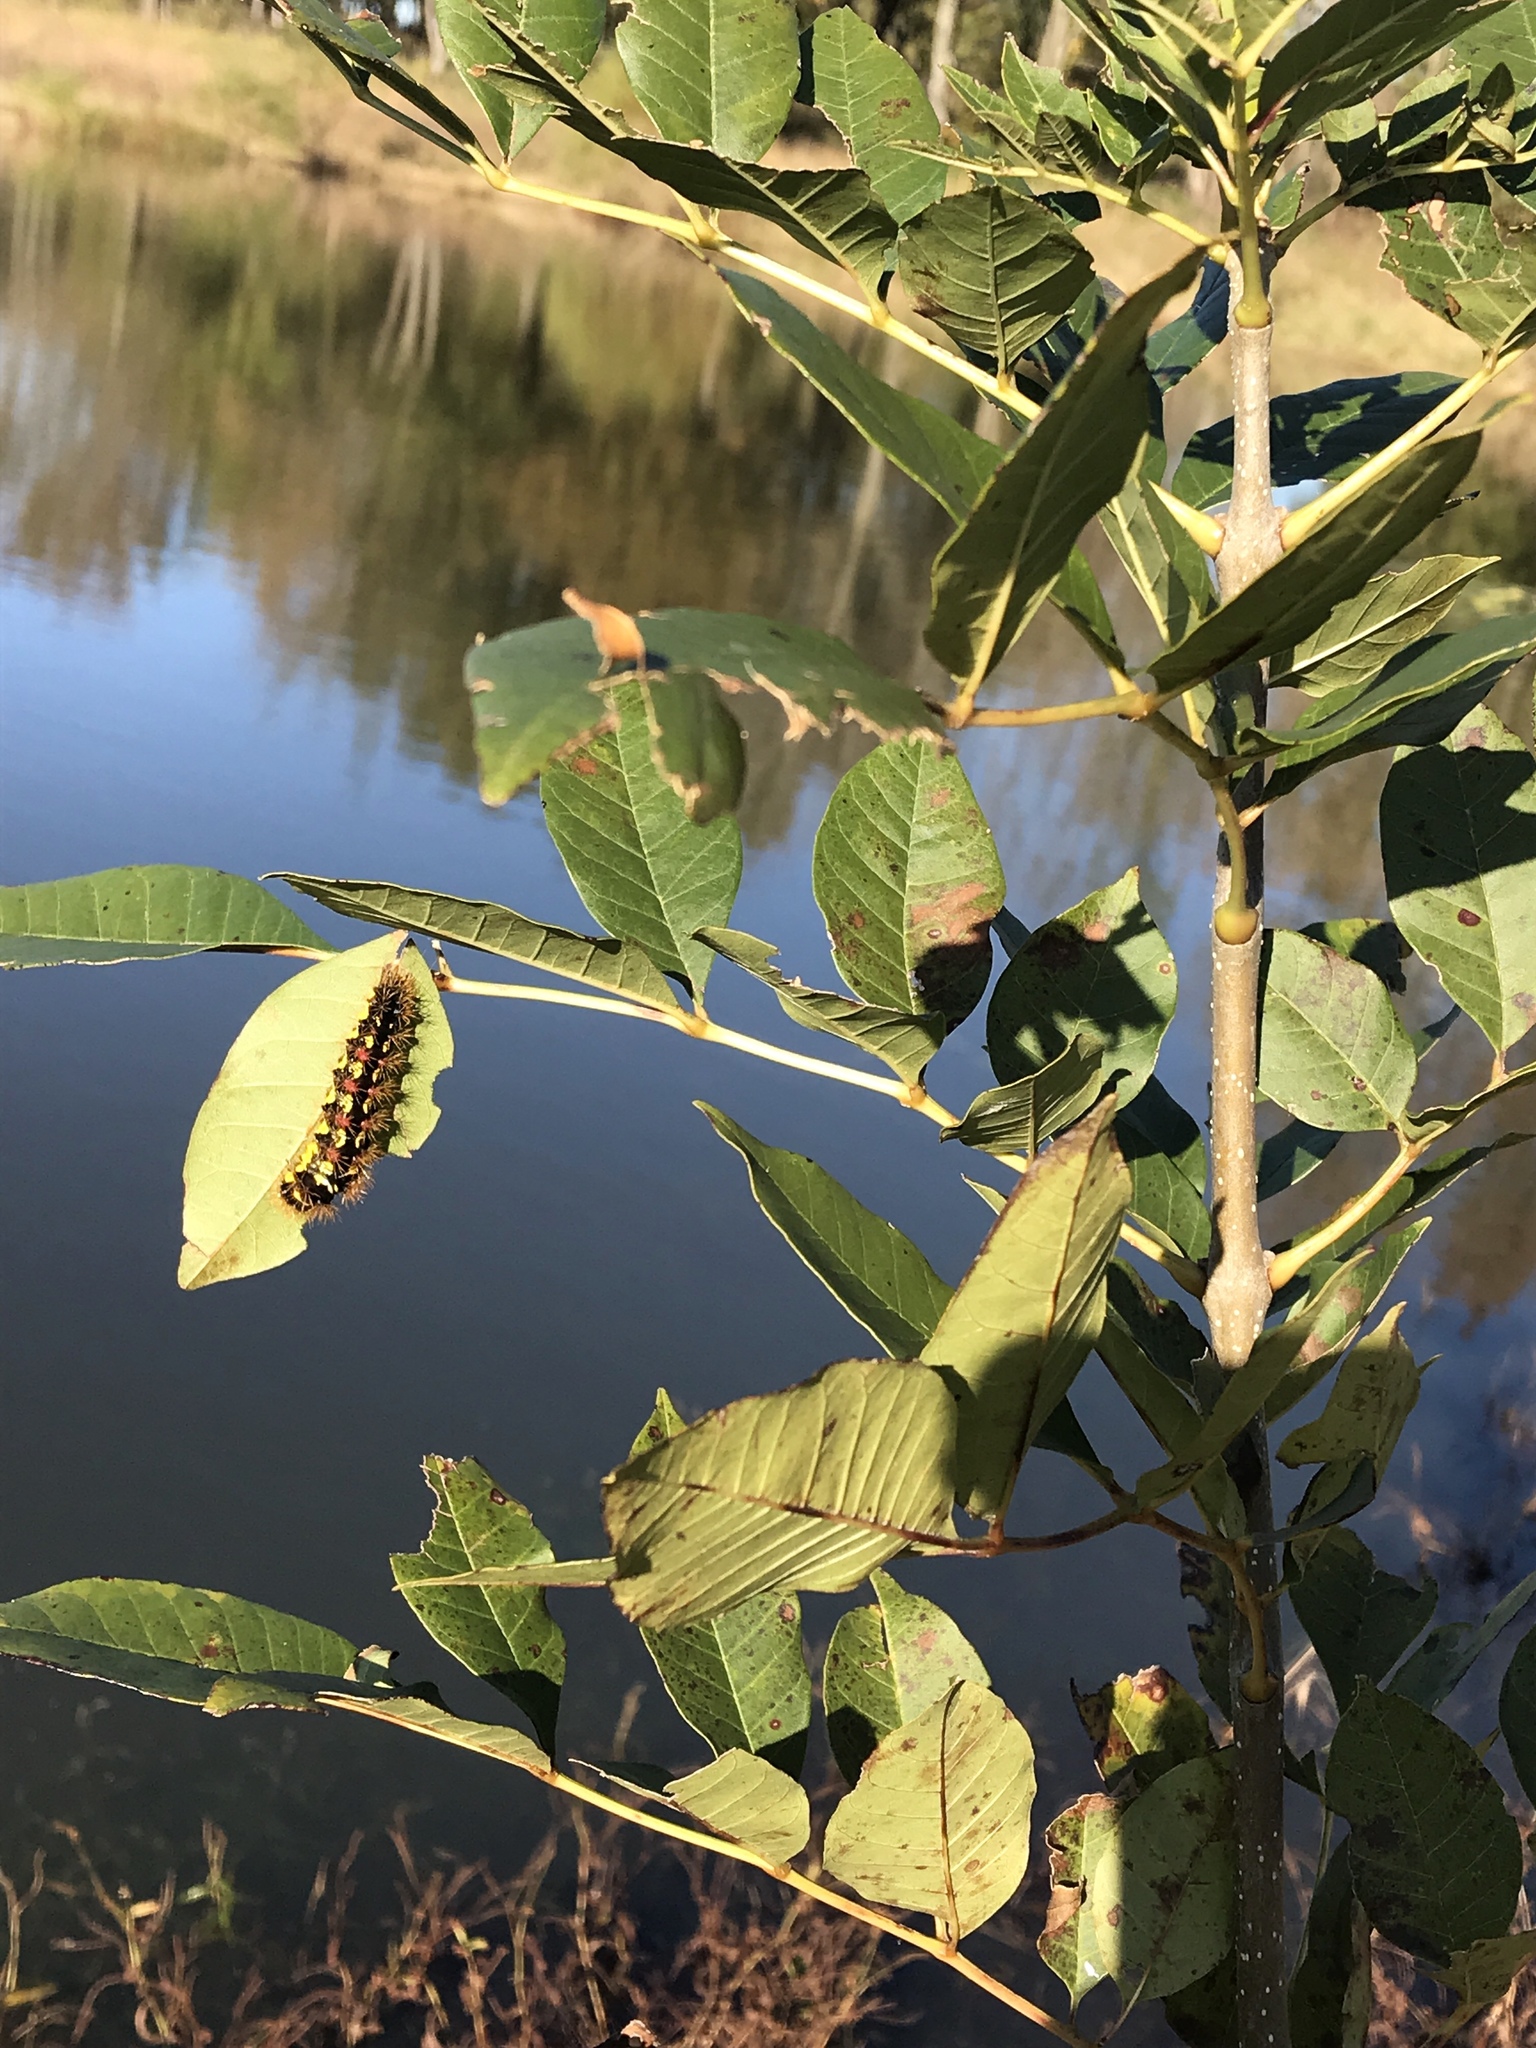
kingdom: Animalia
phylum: Arthropoda
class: Insecta
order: Lepidoptera
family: Noctuidae
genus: Acronicta
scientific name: Acronicta oblinita
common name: Smeared dagger
